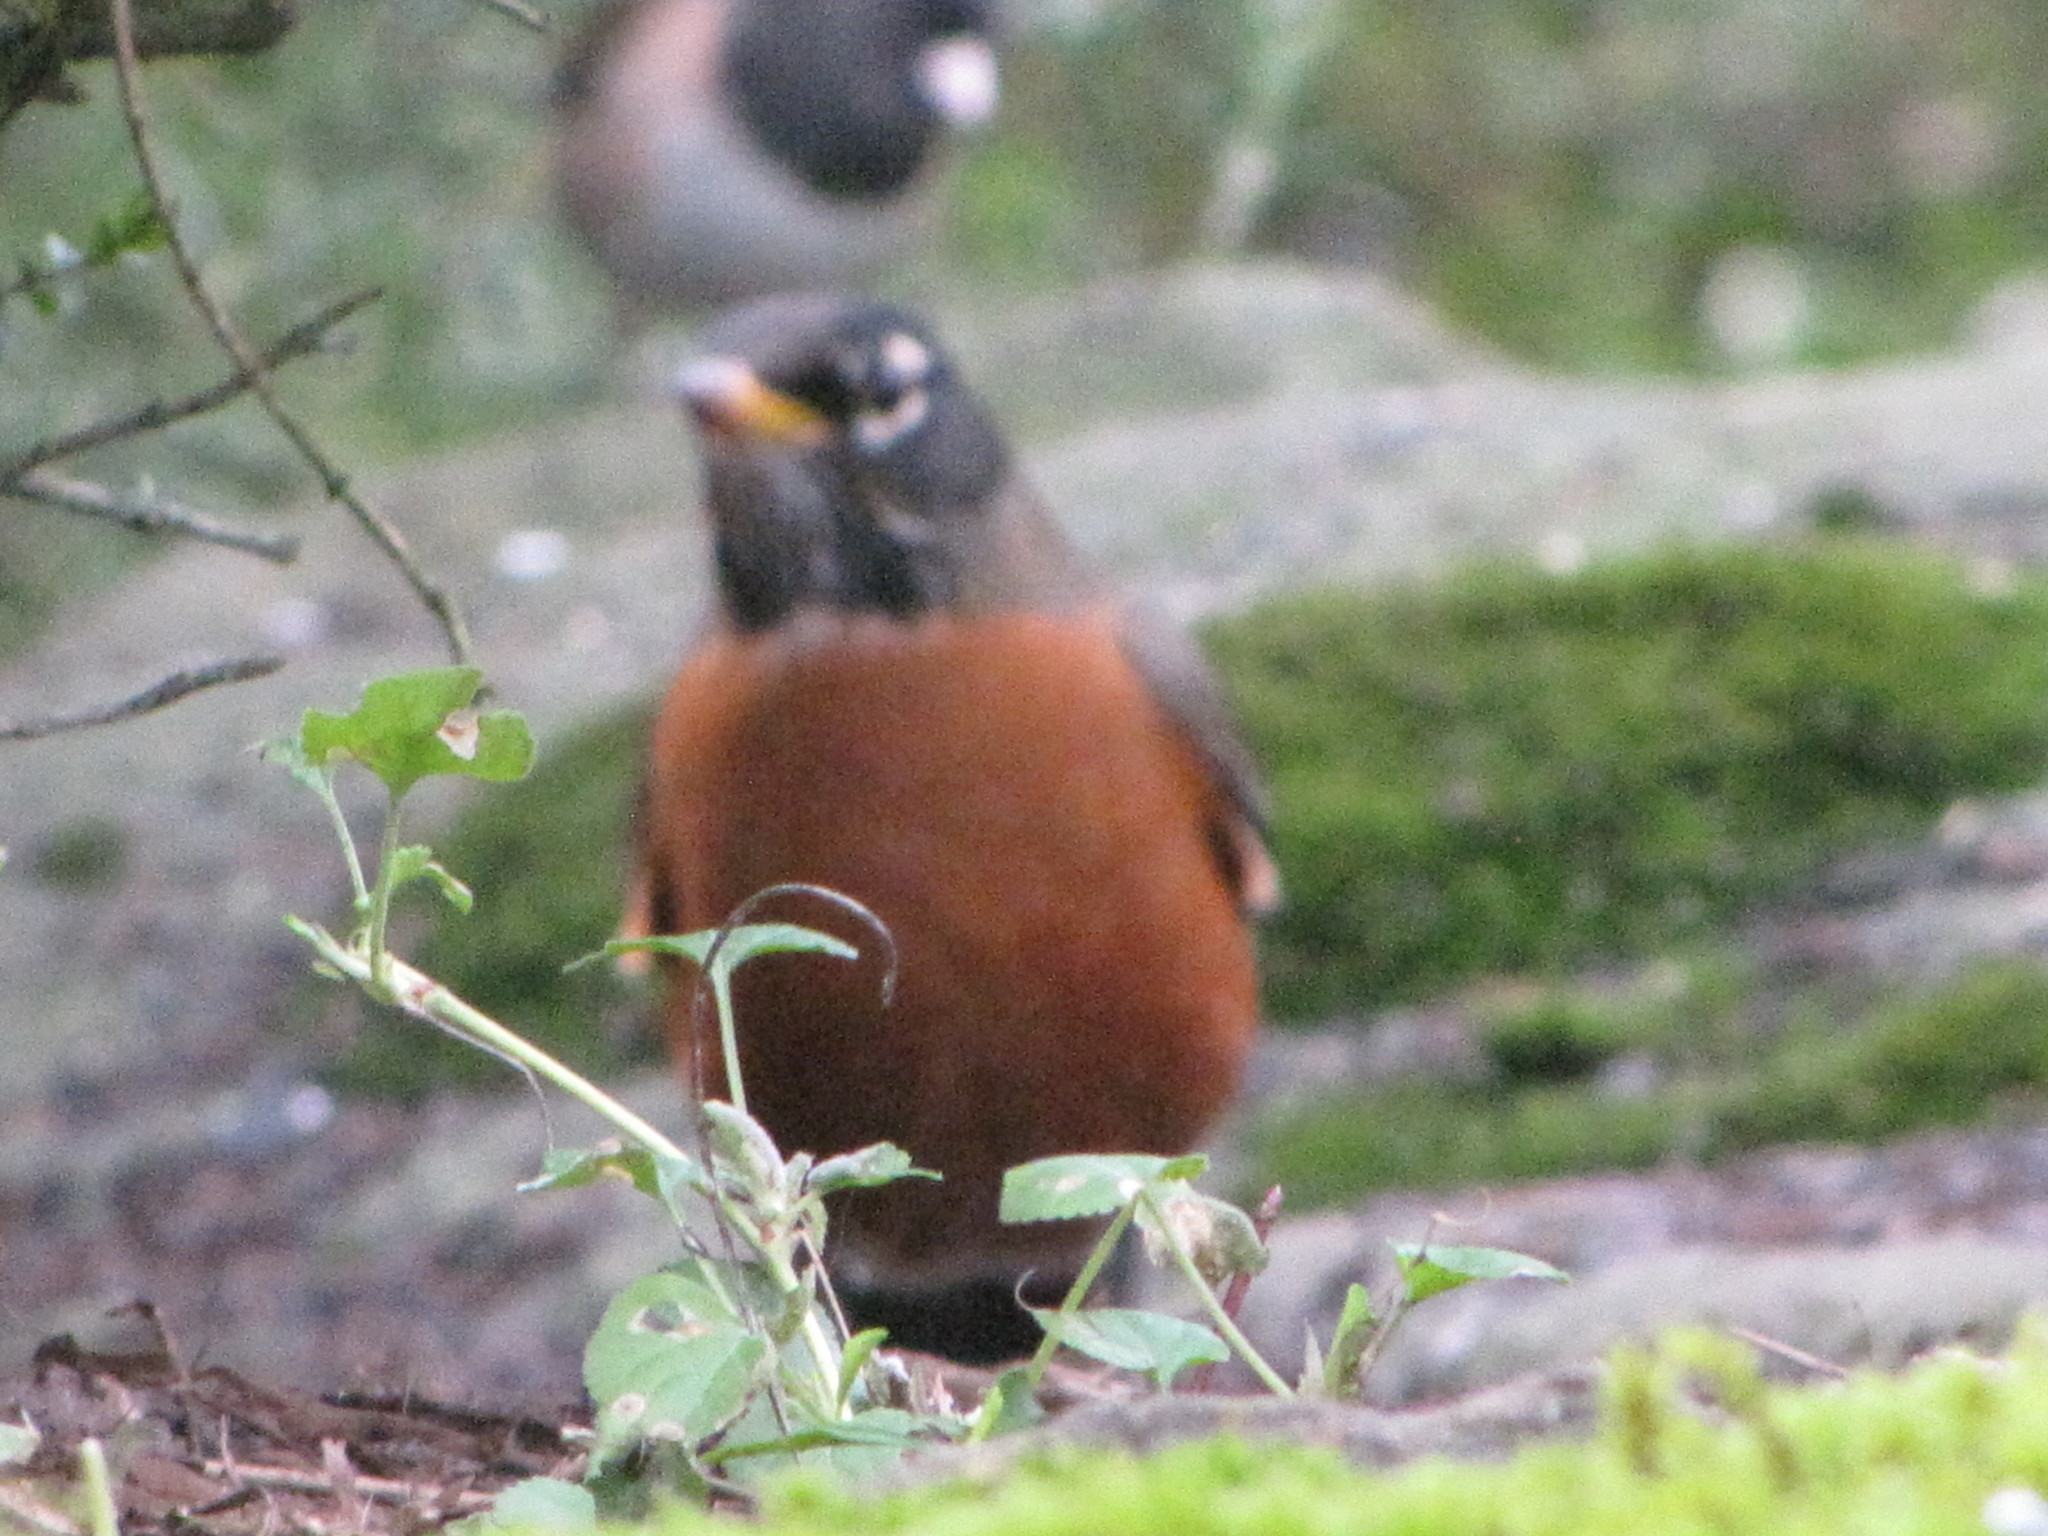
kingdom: Animalia
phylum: Chordata
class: Aves
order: Passeriformes
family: Turdidae
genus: Turdus
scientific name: Turdus migratorius
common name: American robin
